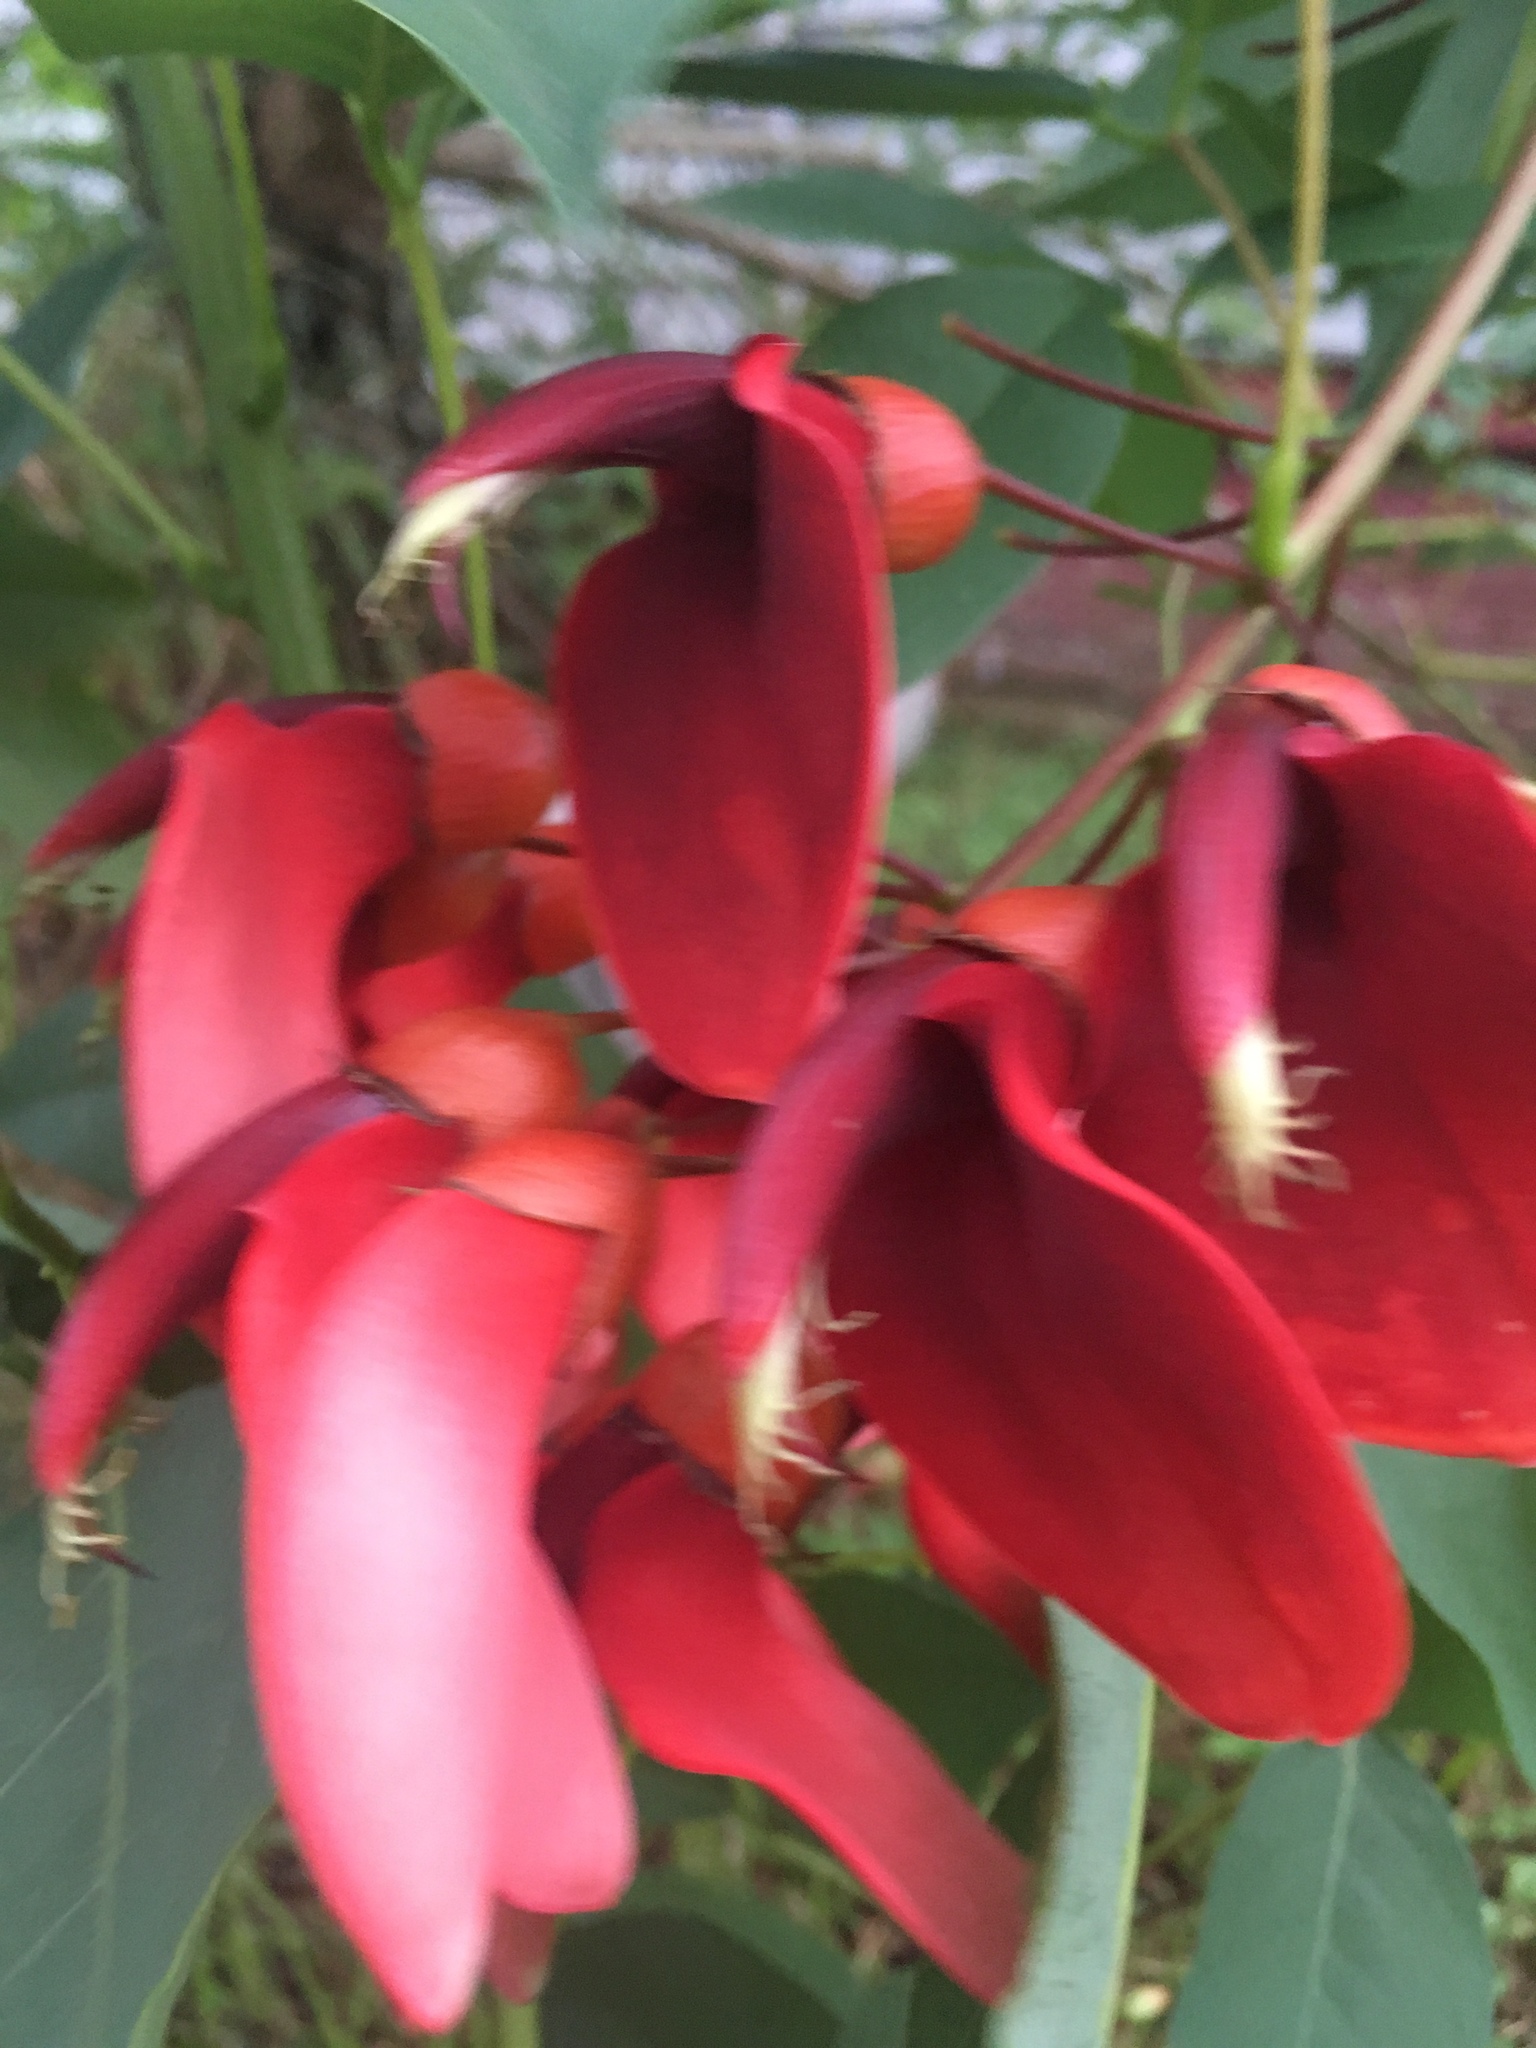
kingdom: Plantae
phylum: Tracheophyta
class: Magnoliopsida
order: Fabales
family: Fabaceae
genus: Erythrina
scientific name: Erythrina crista-galli
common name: Cockspur coral tree
